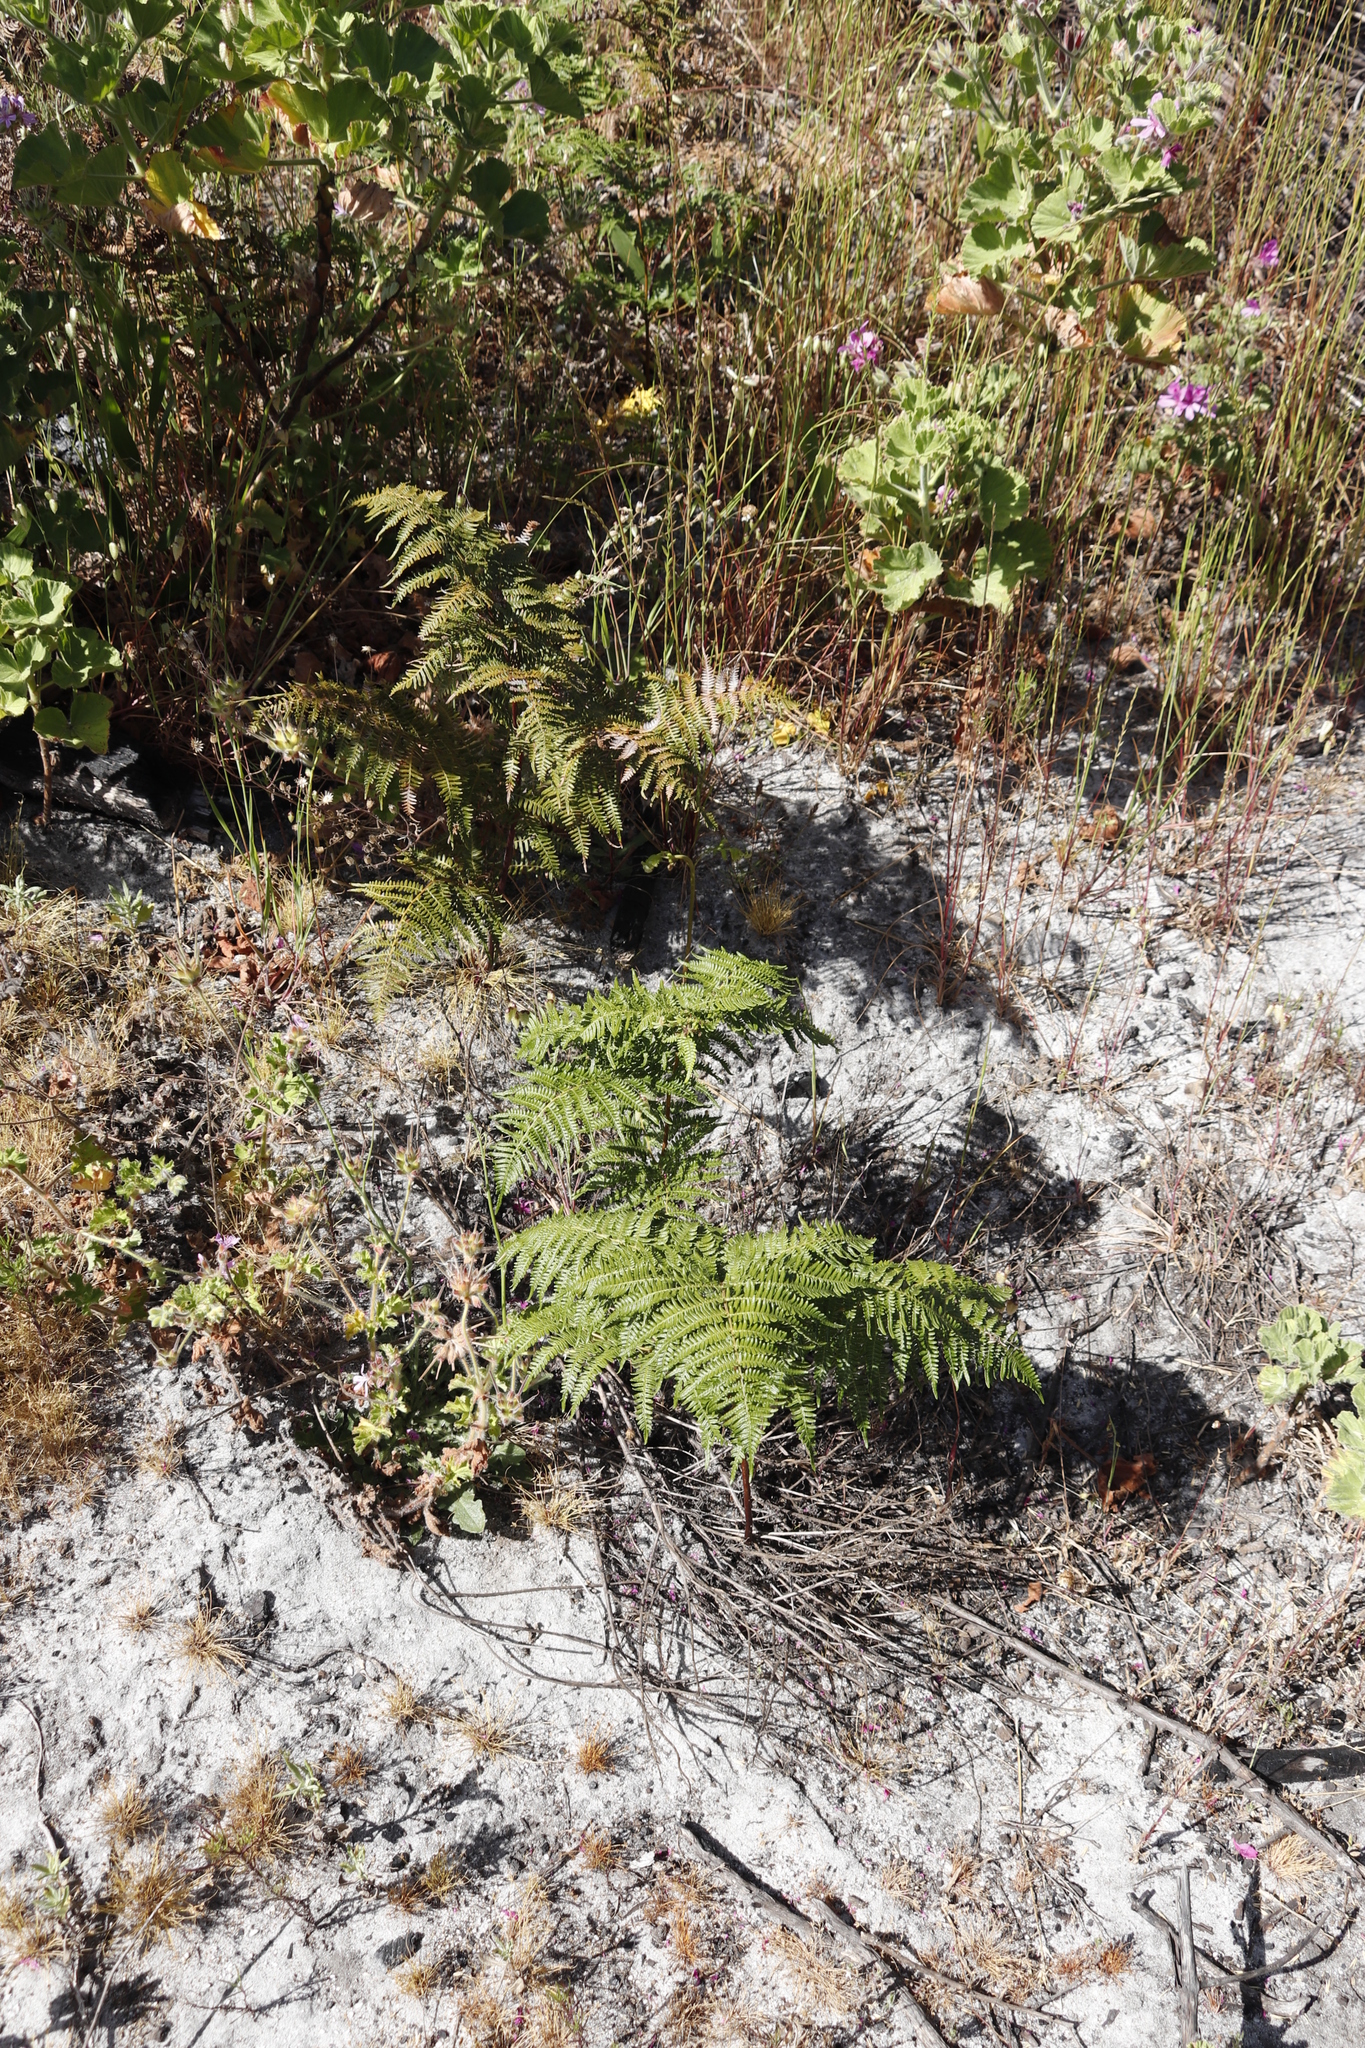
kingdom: Plantae
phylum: Tracheophyta
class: Polypodiopsida
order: Polypodiales
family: Dennstaedtiaceae
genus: Pteridium
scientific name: Pteridium aquilinum
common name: Bracken
